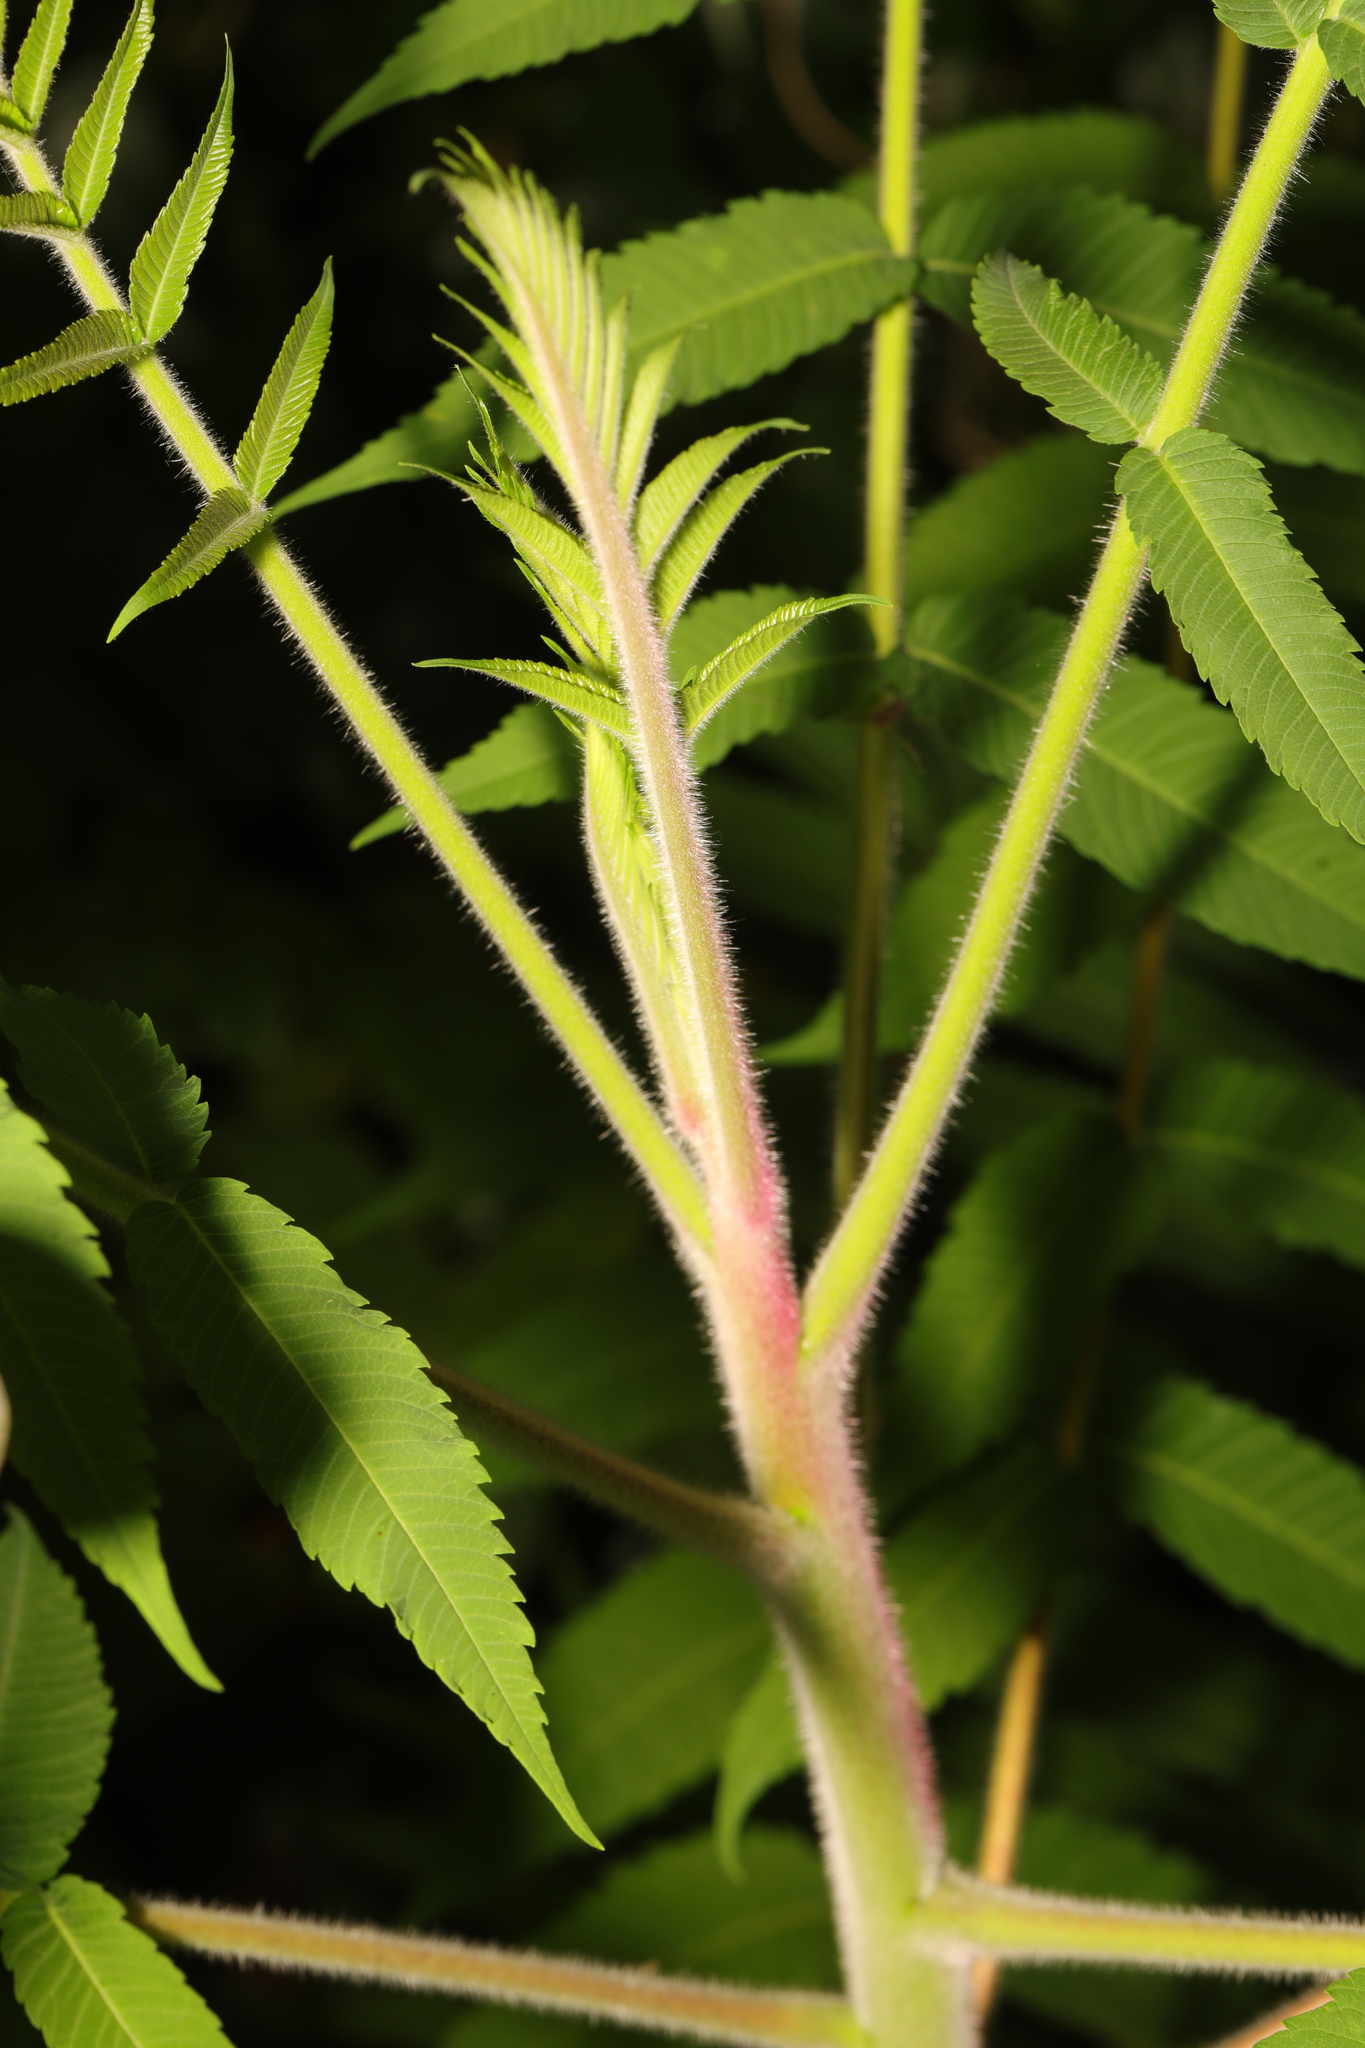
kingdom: Plantae
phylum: Tracheophyta
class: Magnoliopsida
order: Sapindales
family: Anacardiaceae
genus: Rhus
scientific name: Rhus typhina
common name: Staghorn sumac
